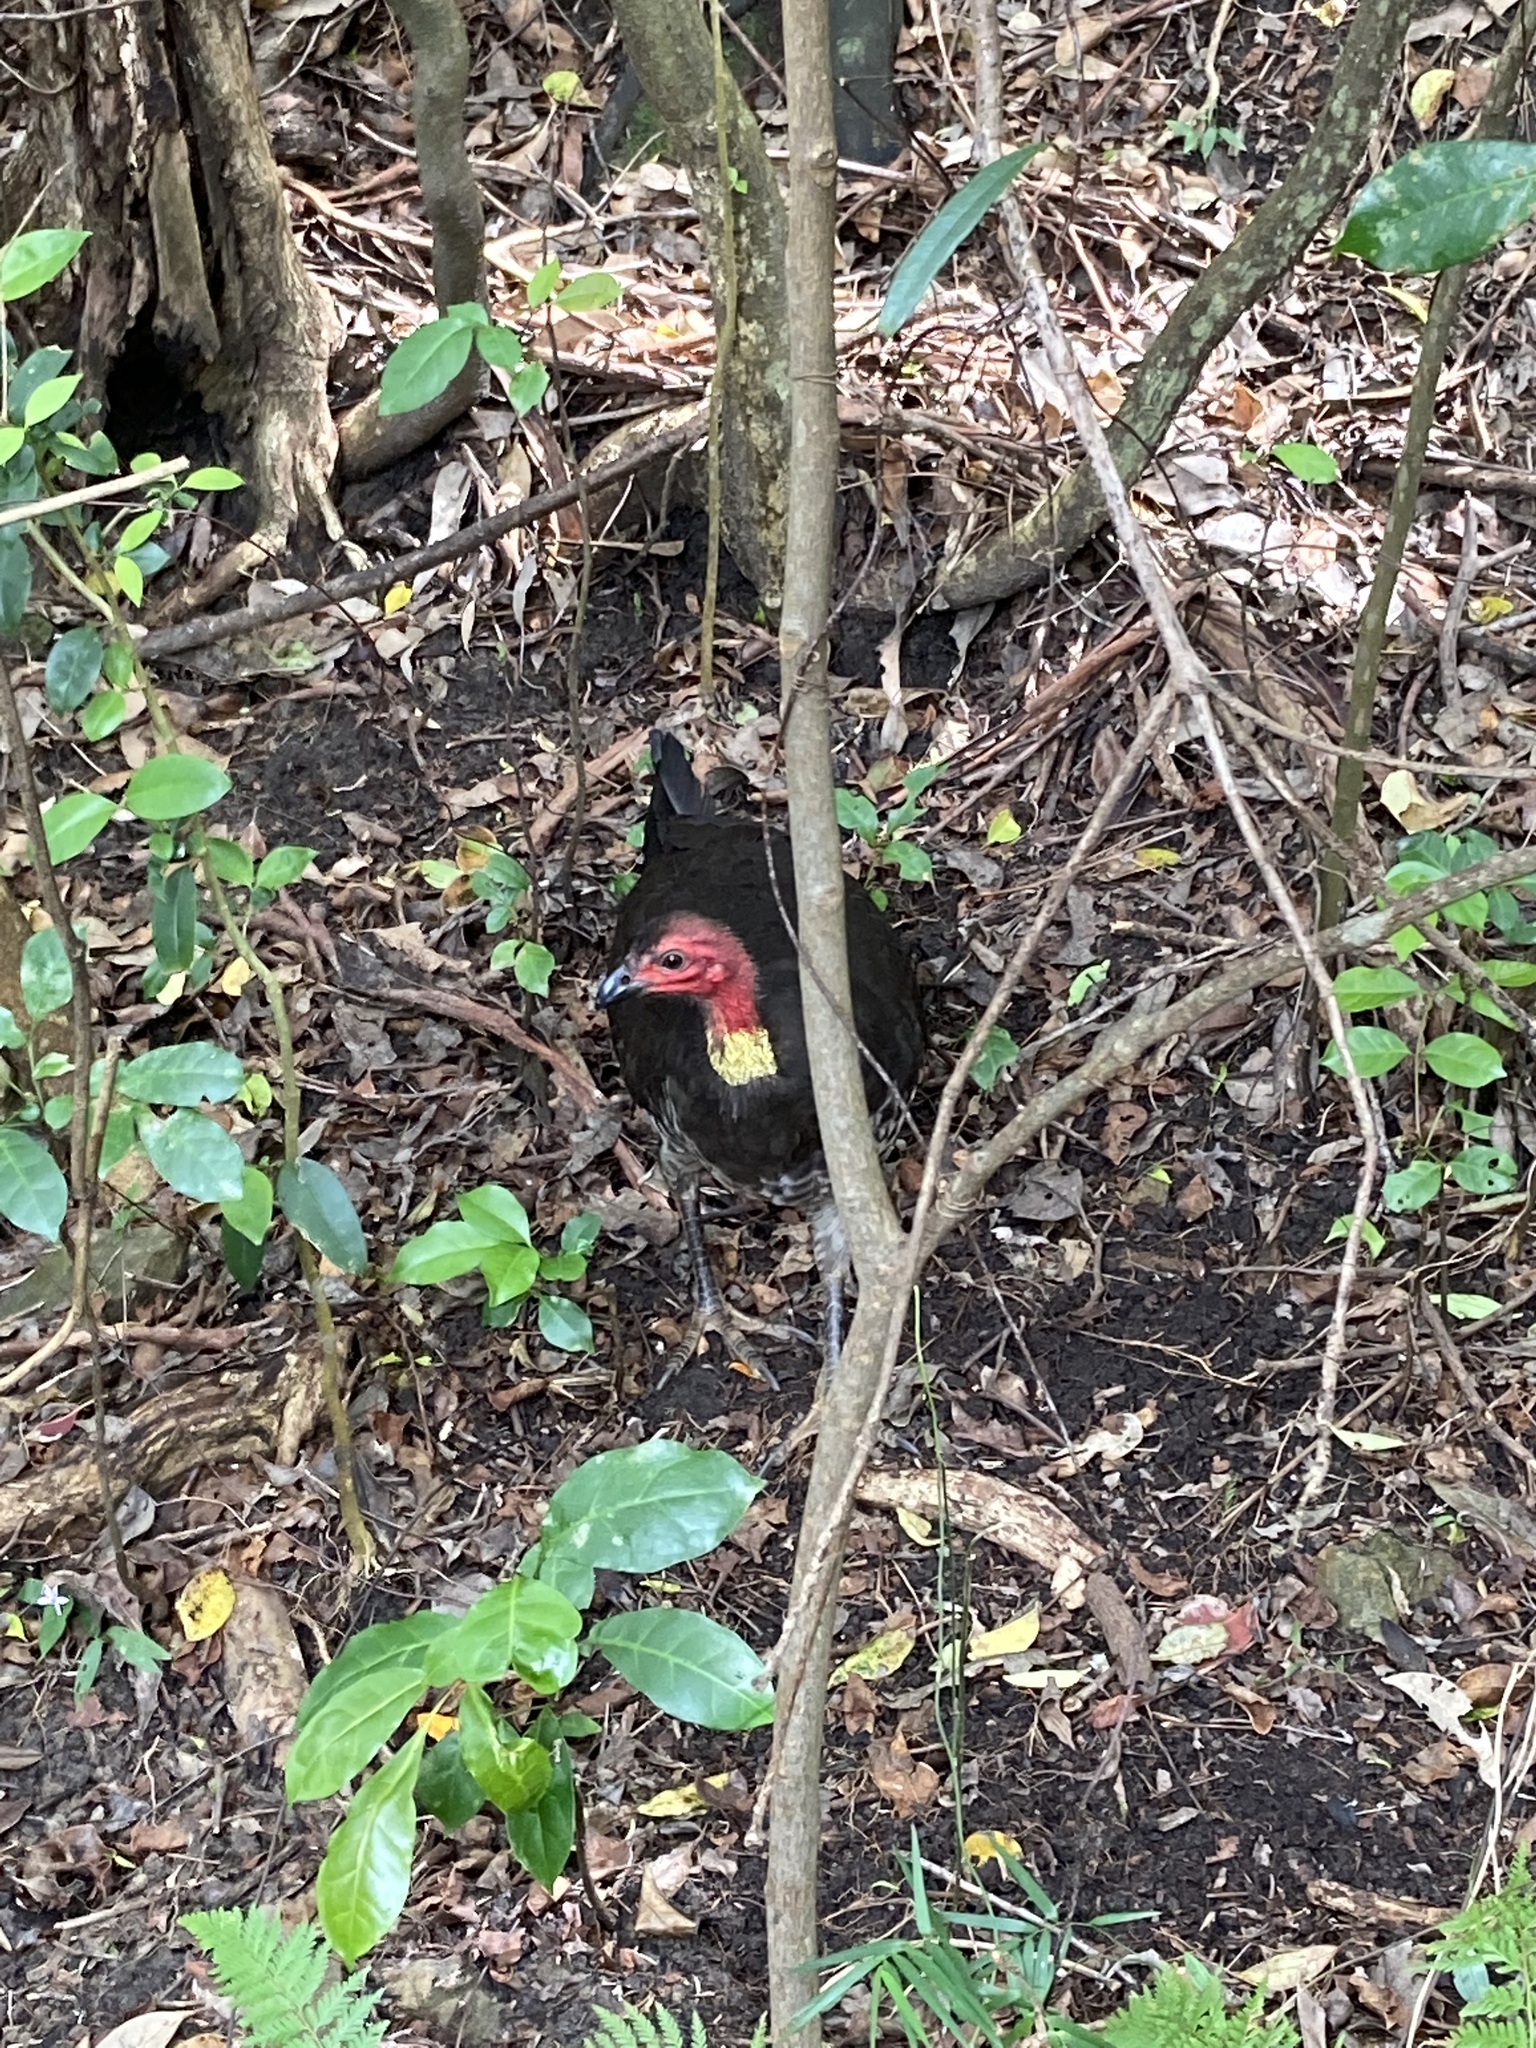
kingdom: Animalia
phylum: Chordata
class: Aves
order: Galliformes
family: Megapodiidae
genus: Alectura
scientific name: Alectura lathami
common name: Australian brushturkey
